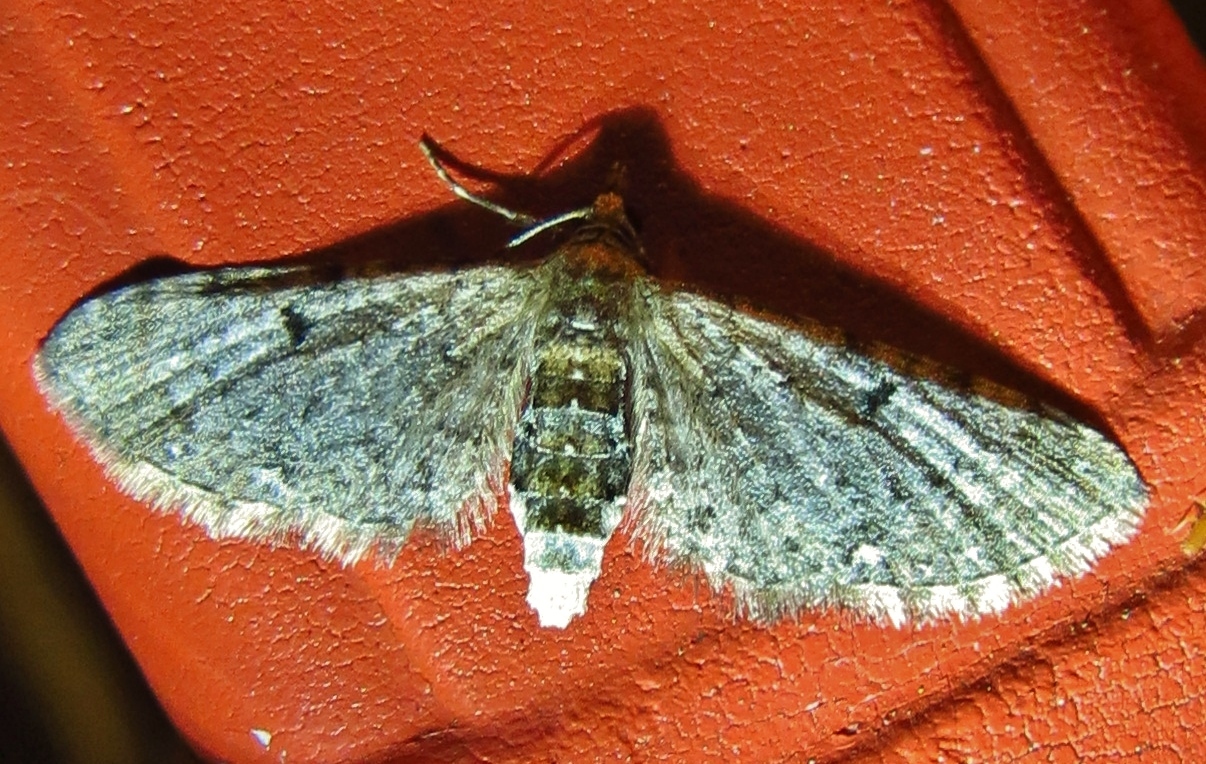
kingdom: Animalia
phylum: Arthropoda
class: Insecta
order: Lepidoptera
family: Geometridae
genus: Eupithecia
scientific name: Eupithecia miserulata
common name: Common eupithecia
